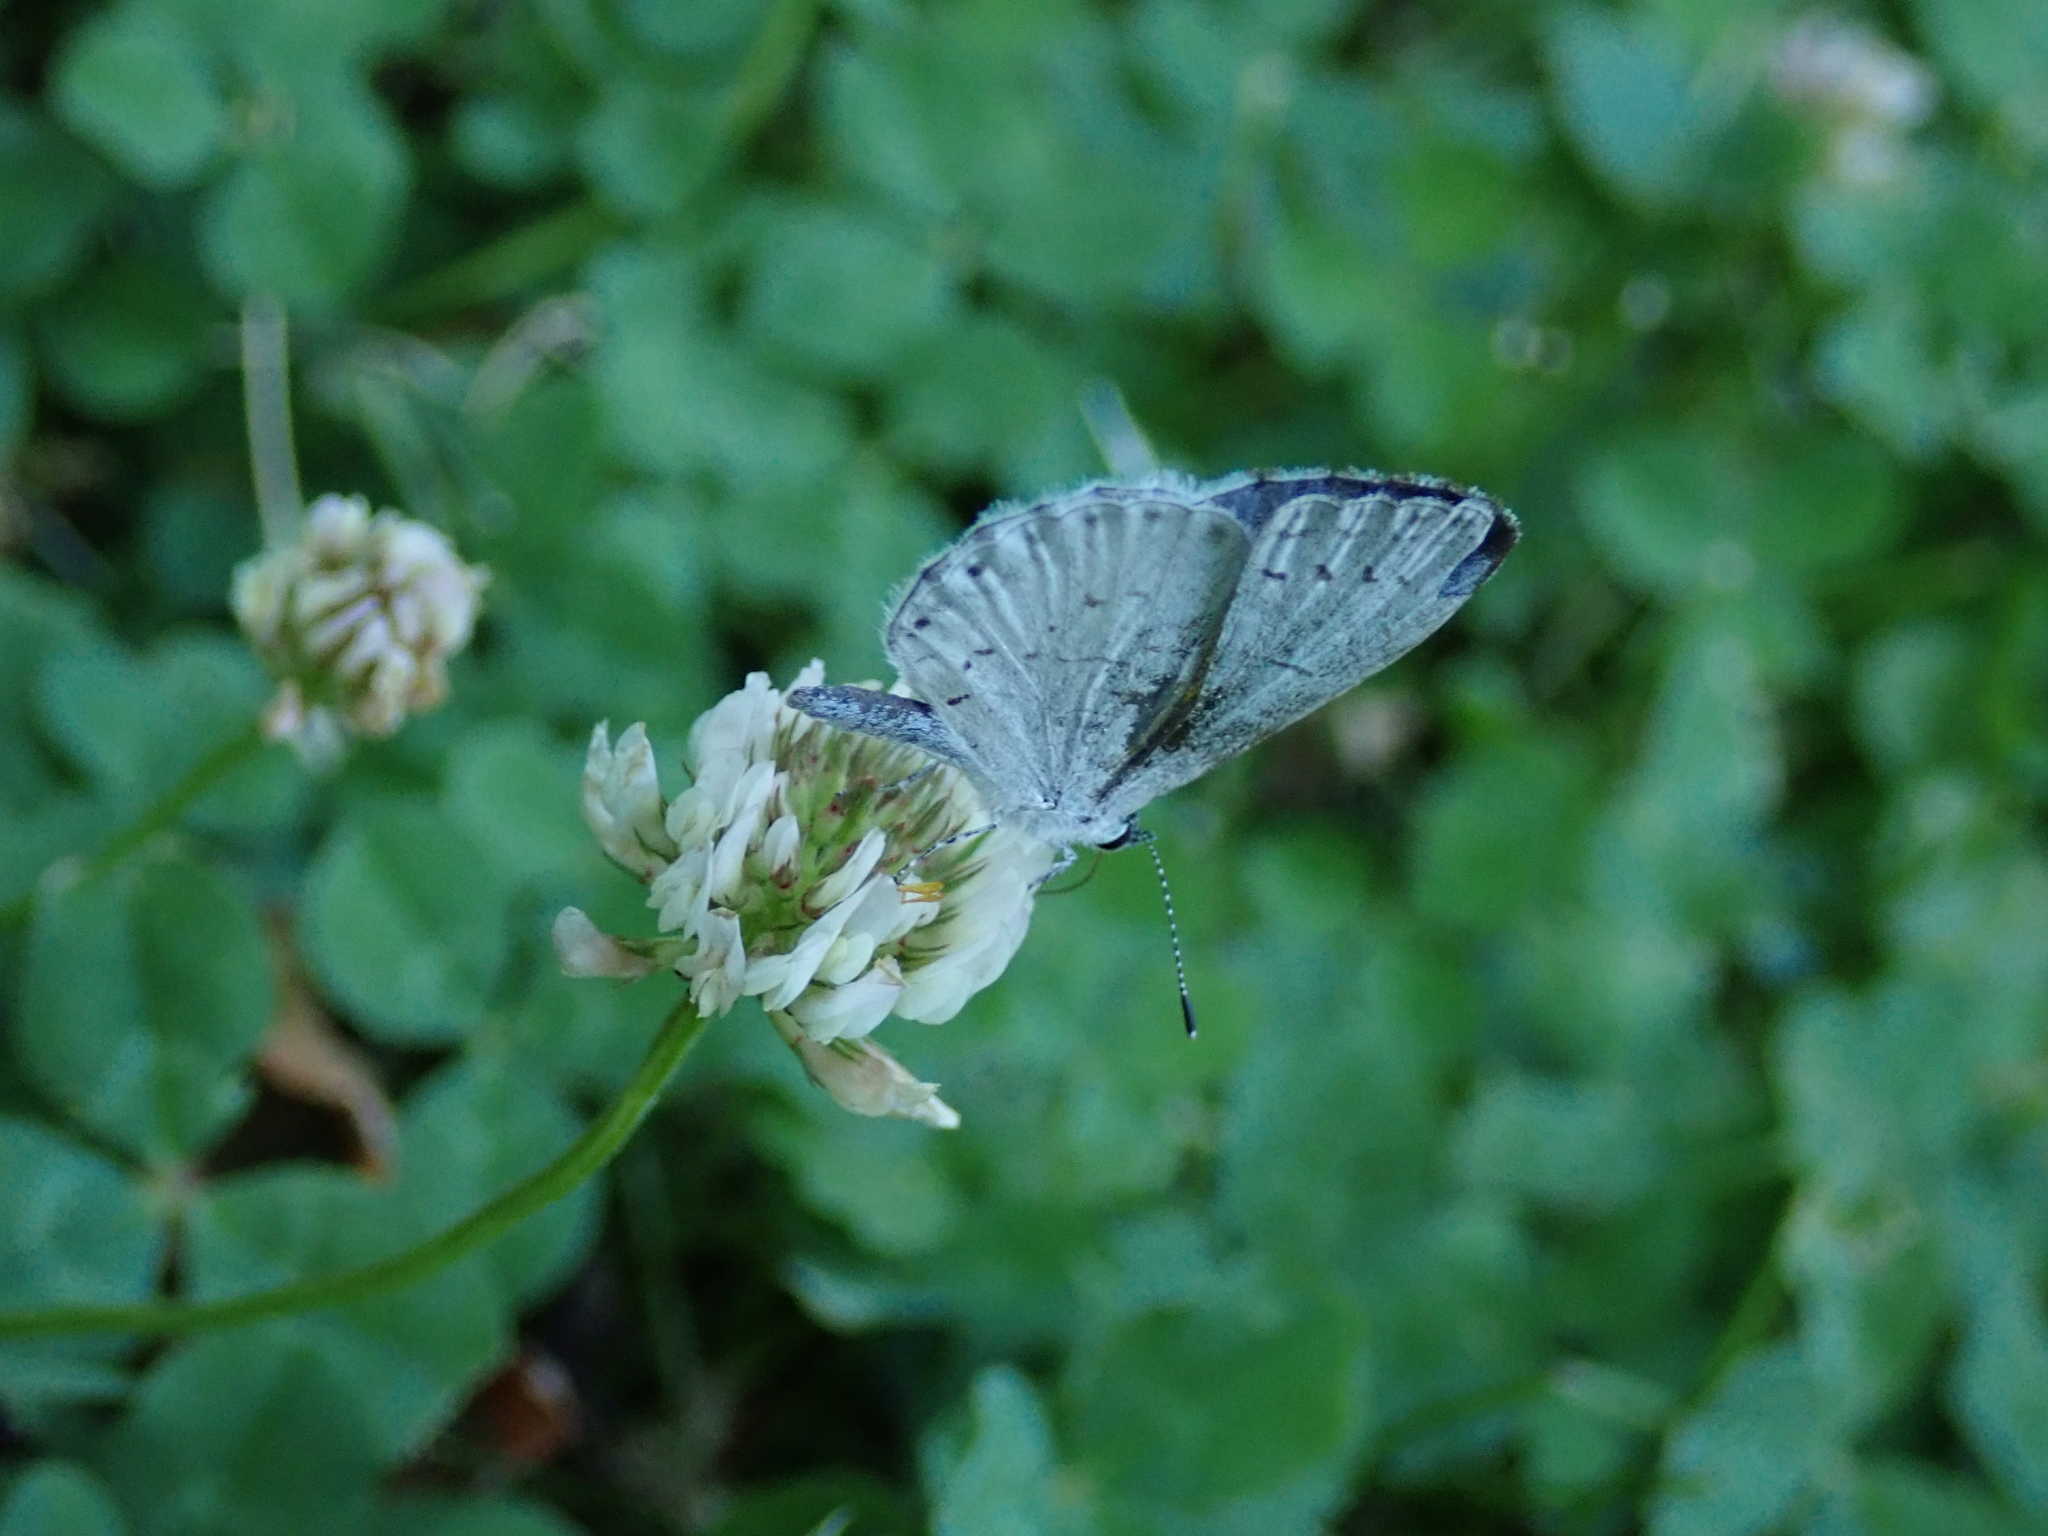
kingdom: Animalia
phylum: Arthropoda
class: Insecta
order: Lepidoptera
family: Lycaenidae
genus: Cyaniris
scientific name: Cyaniris neglecta
